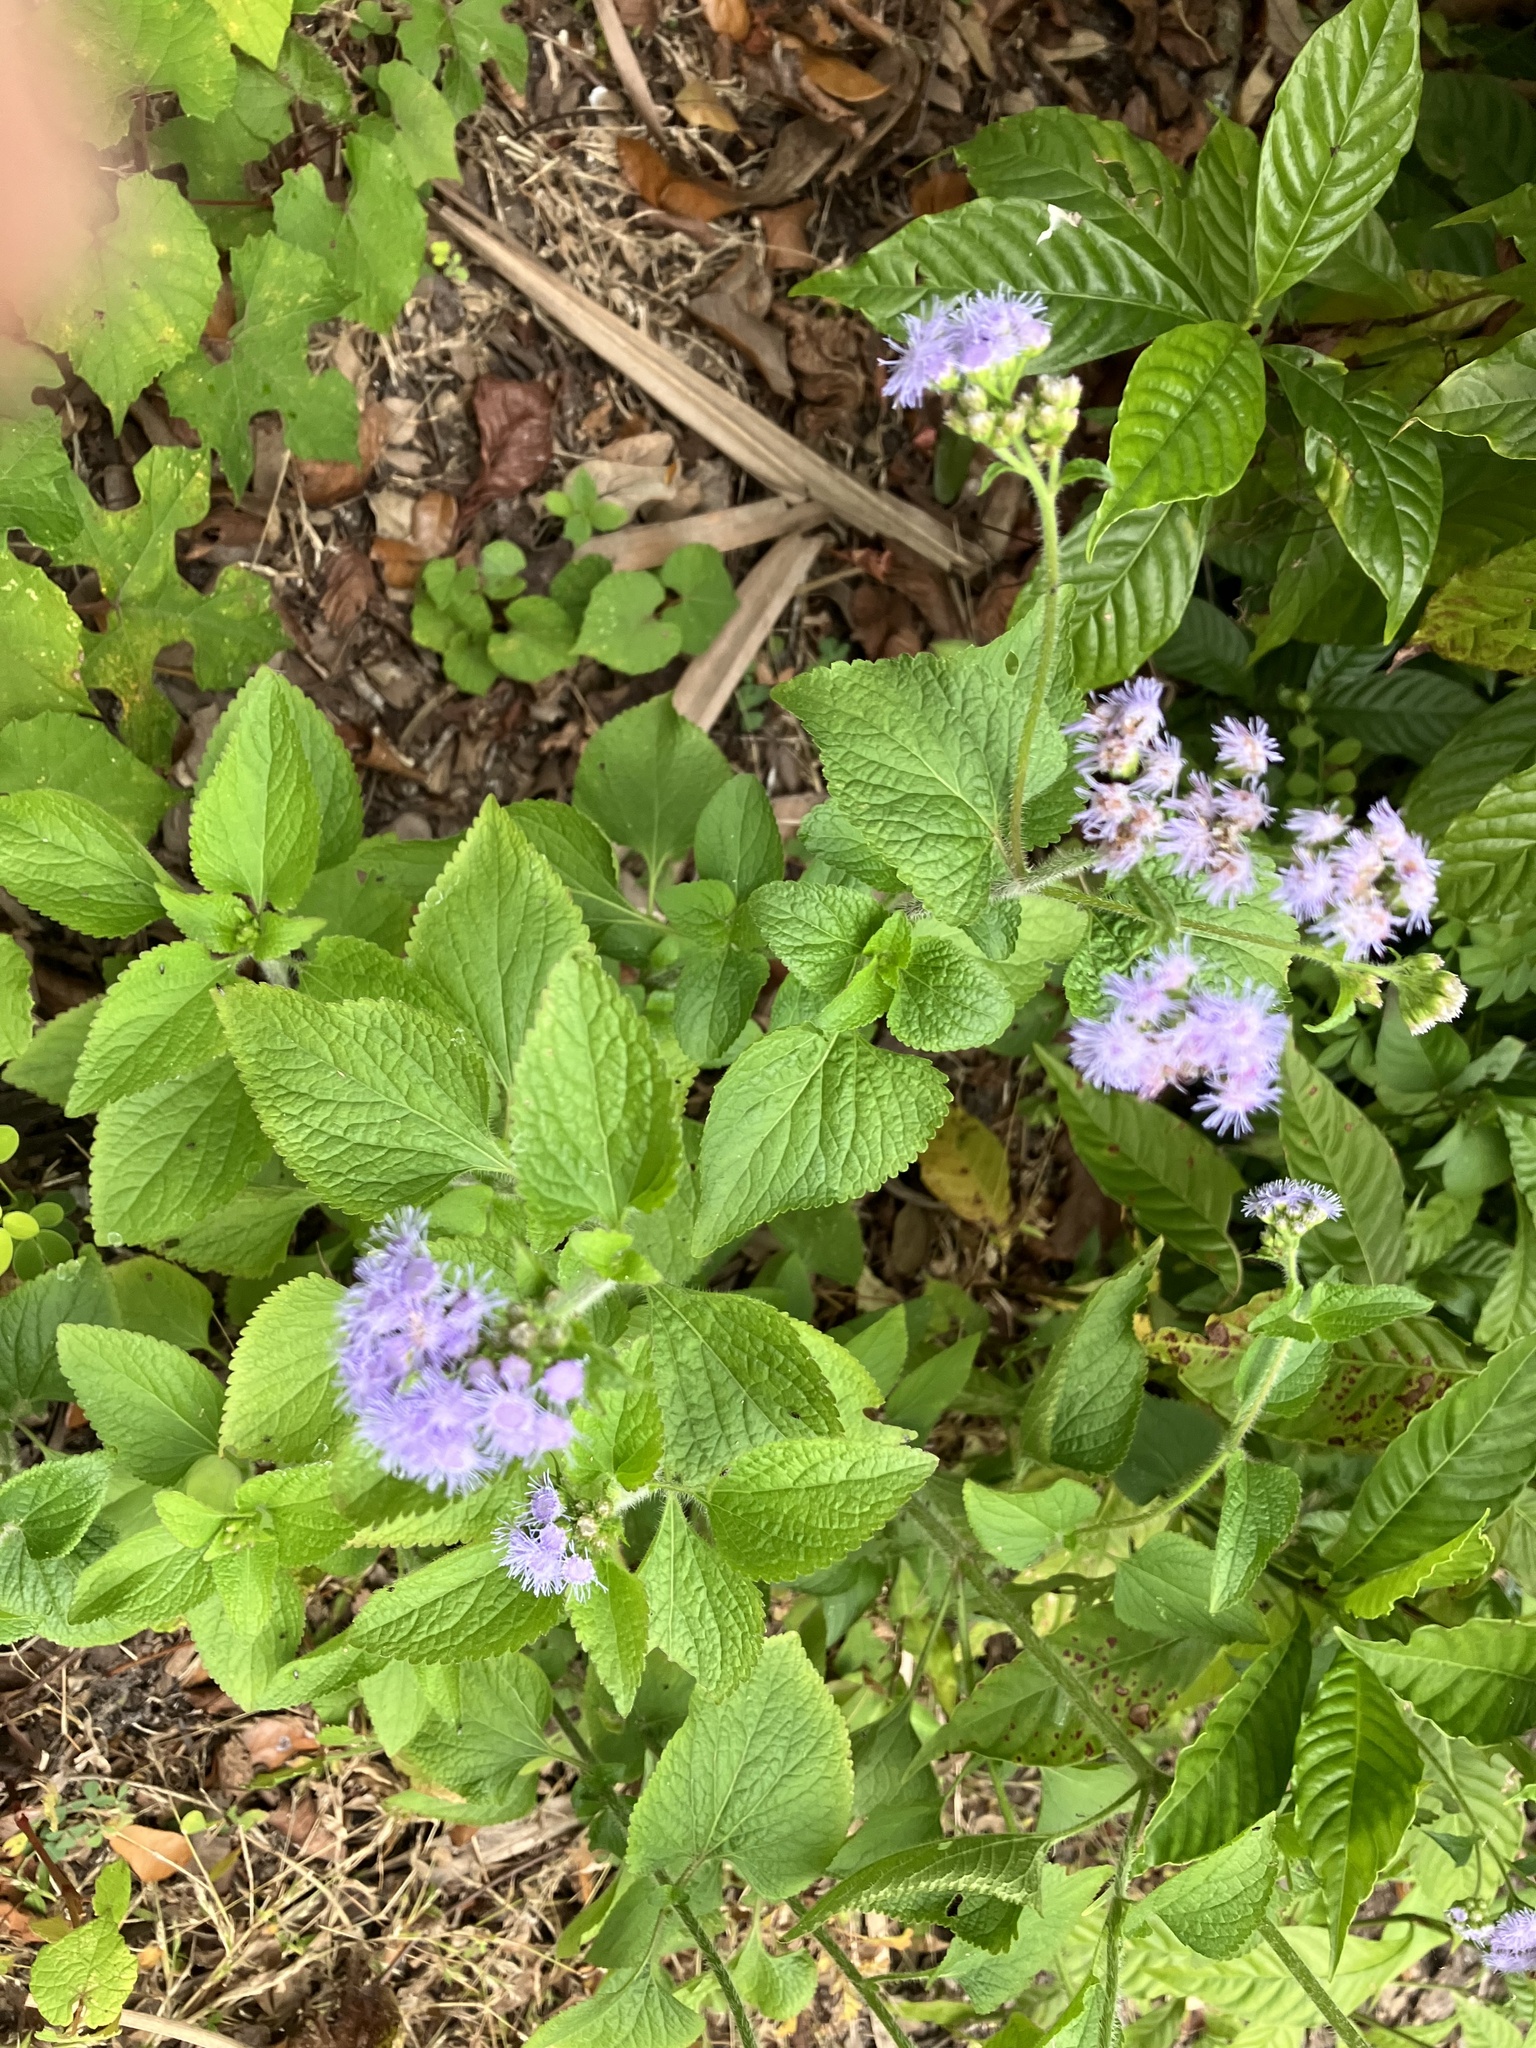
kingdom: Plantae
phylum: Tracheophyta
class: Magnoliopsida
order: Asterales
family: Asteraceae
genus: Ageratum
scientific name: Ageratum houstonianum
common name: Bluemink
